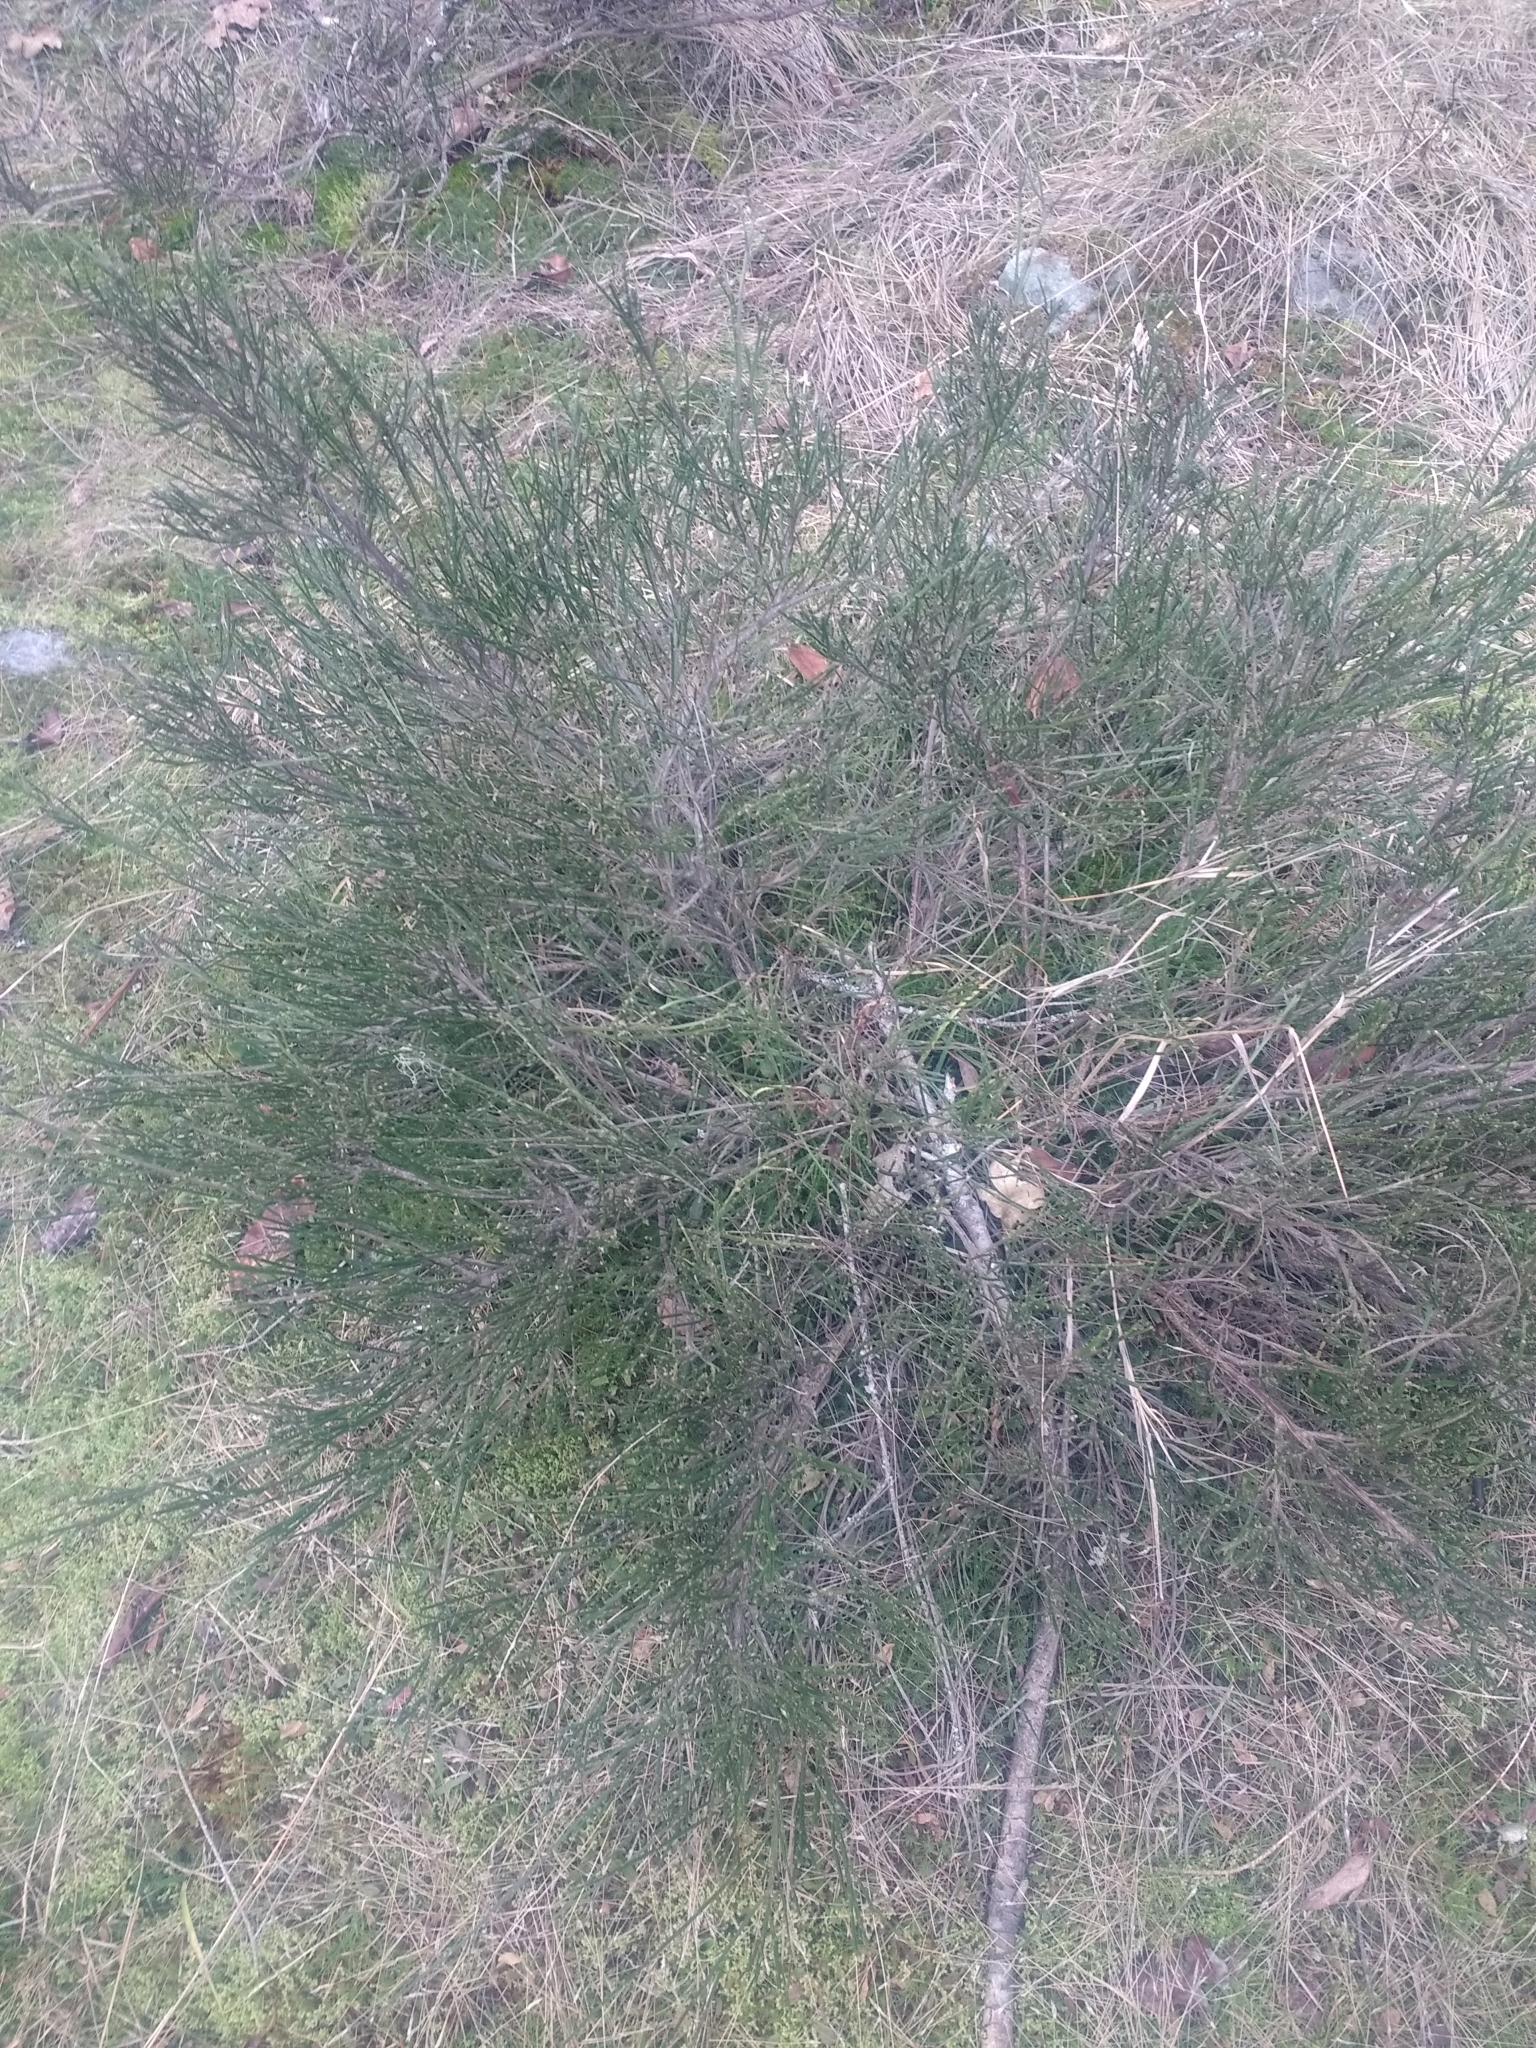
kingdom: Plantae
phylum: Tracheophyta
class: Magnoliopsida
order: Fabales
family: Fabaceae
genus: Cytisus
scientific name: Cytisus scoparius
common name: Scotch broom
